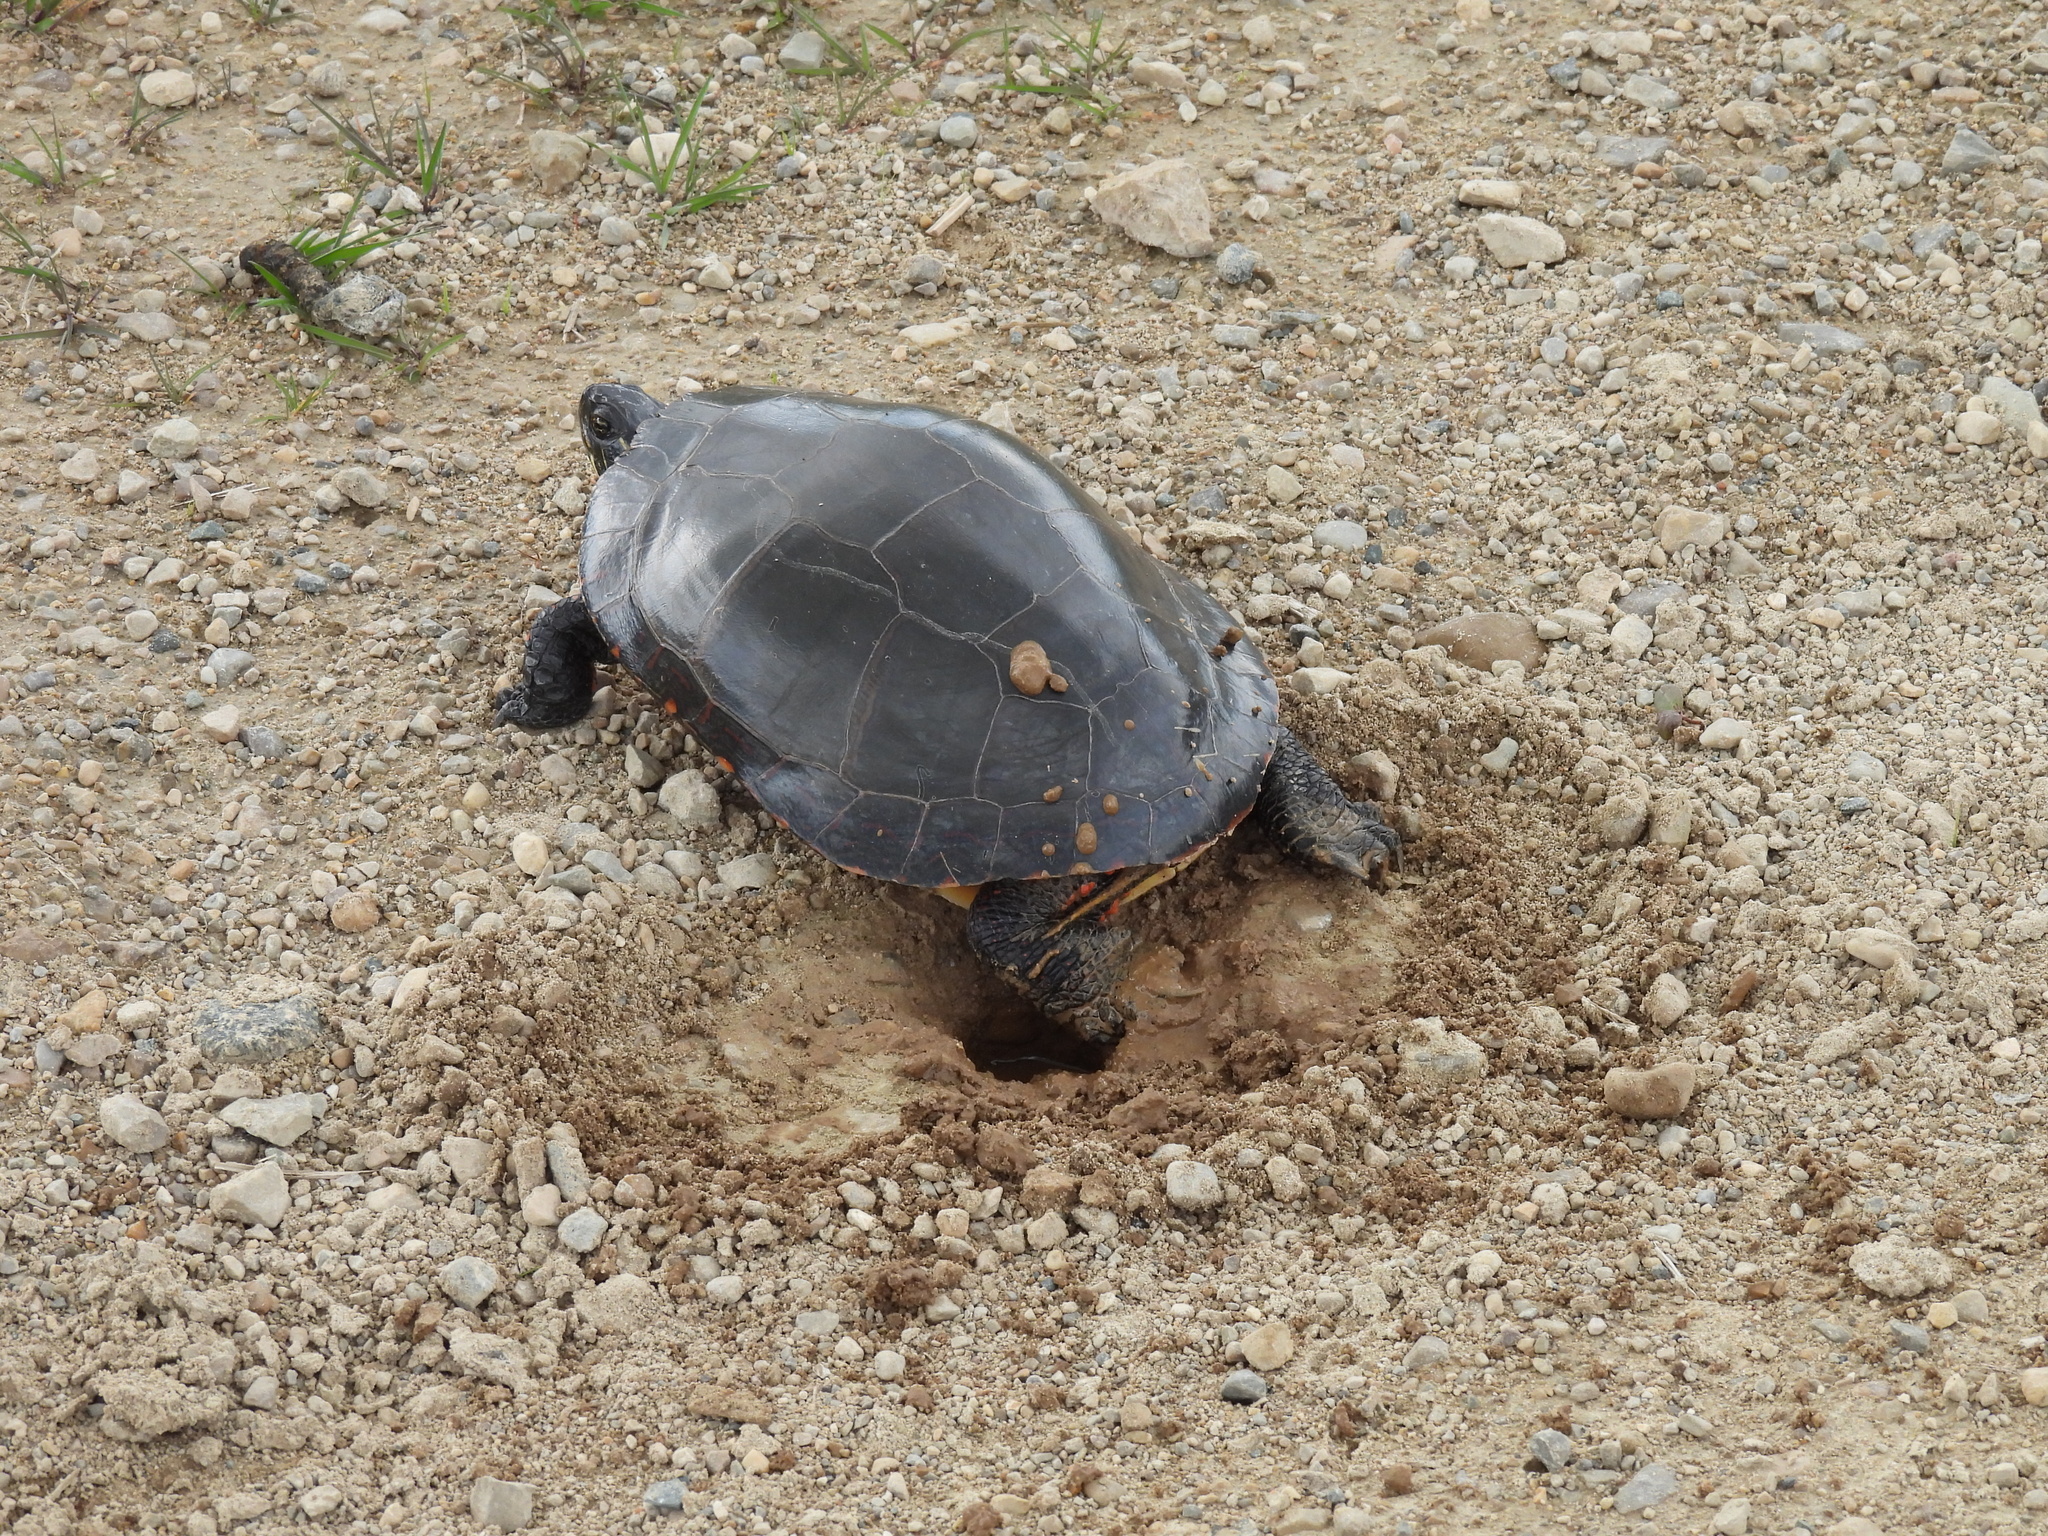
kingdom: Animalia
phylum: Chordata
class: Testudines
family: Emydidae
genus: Chrysemys
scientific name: Chrysemys picta
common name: Painted turtle
